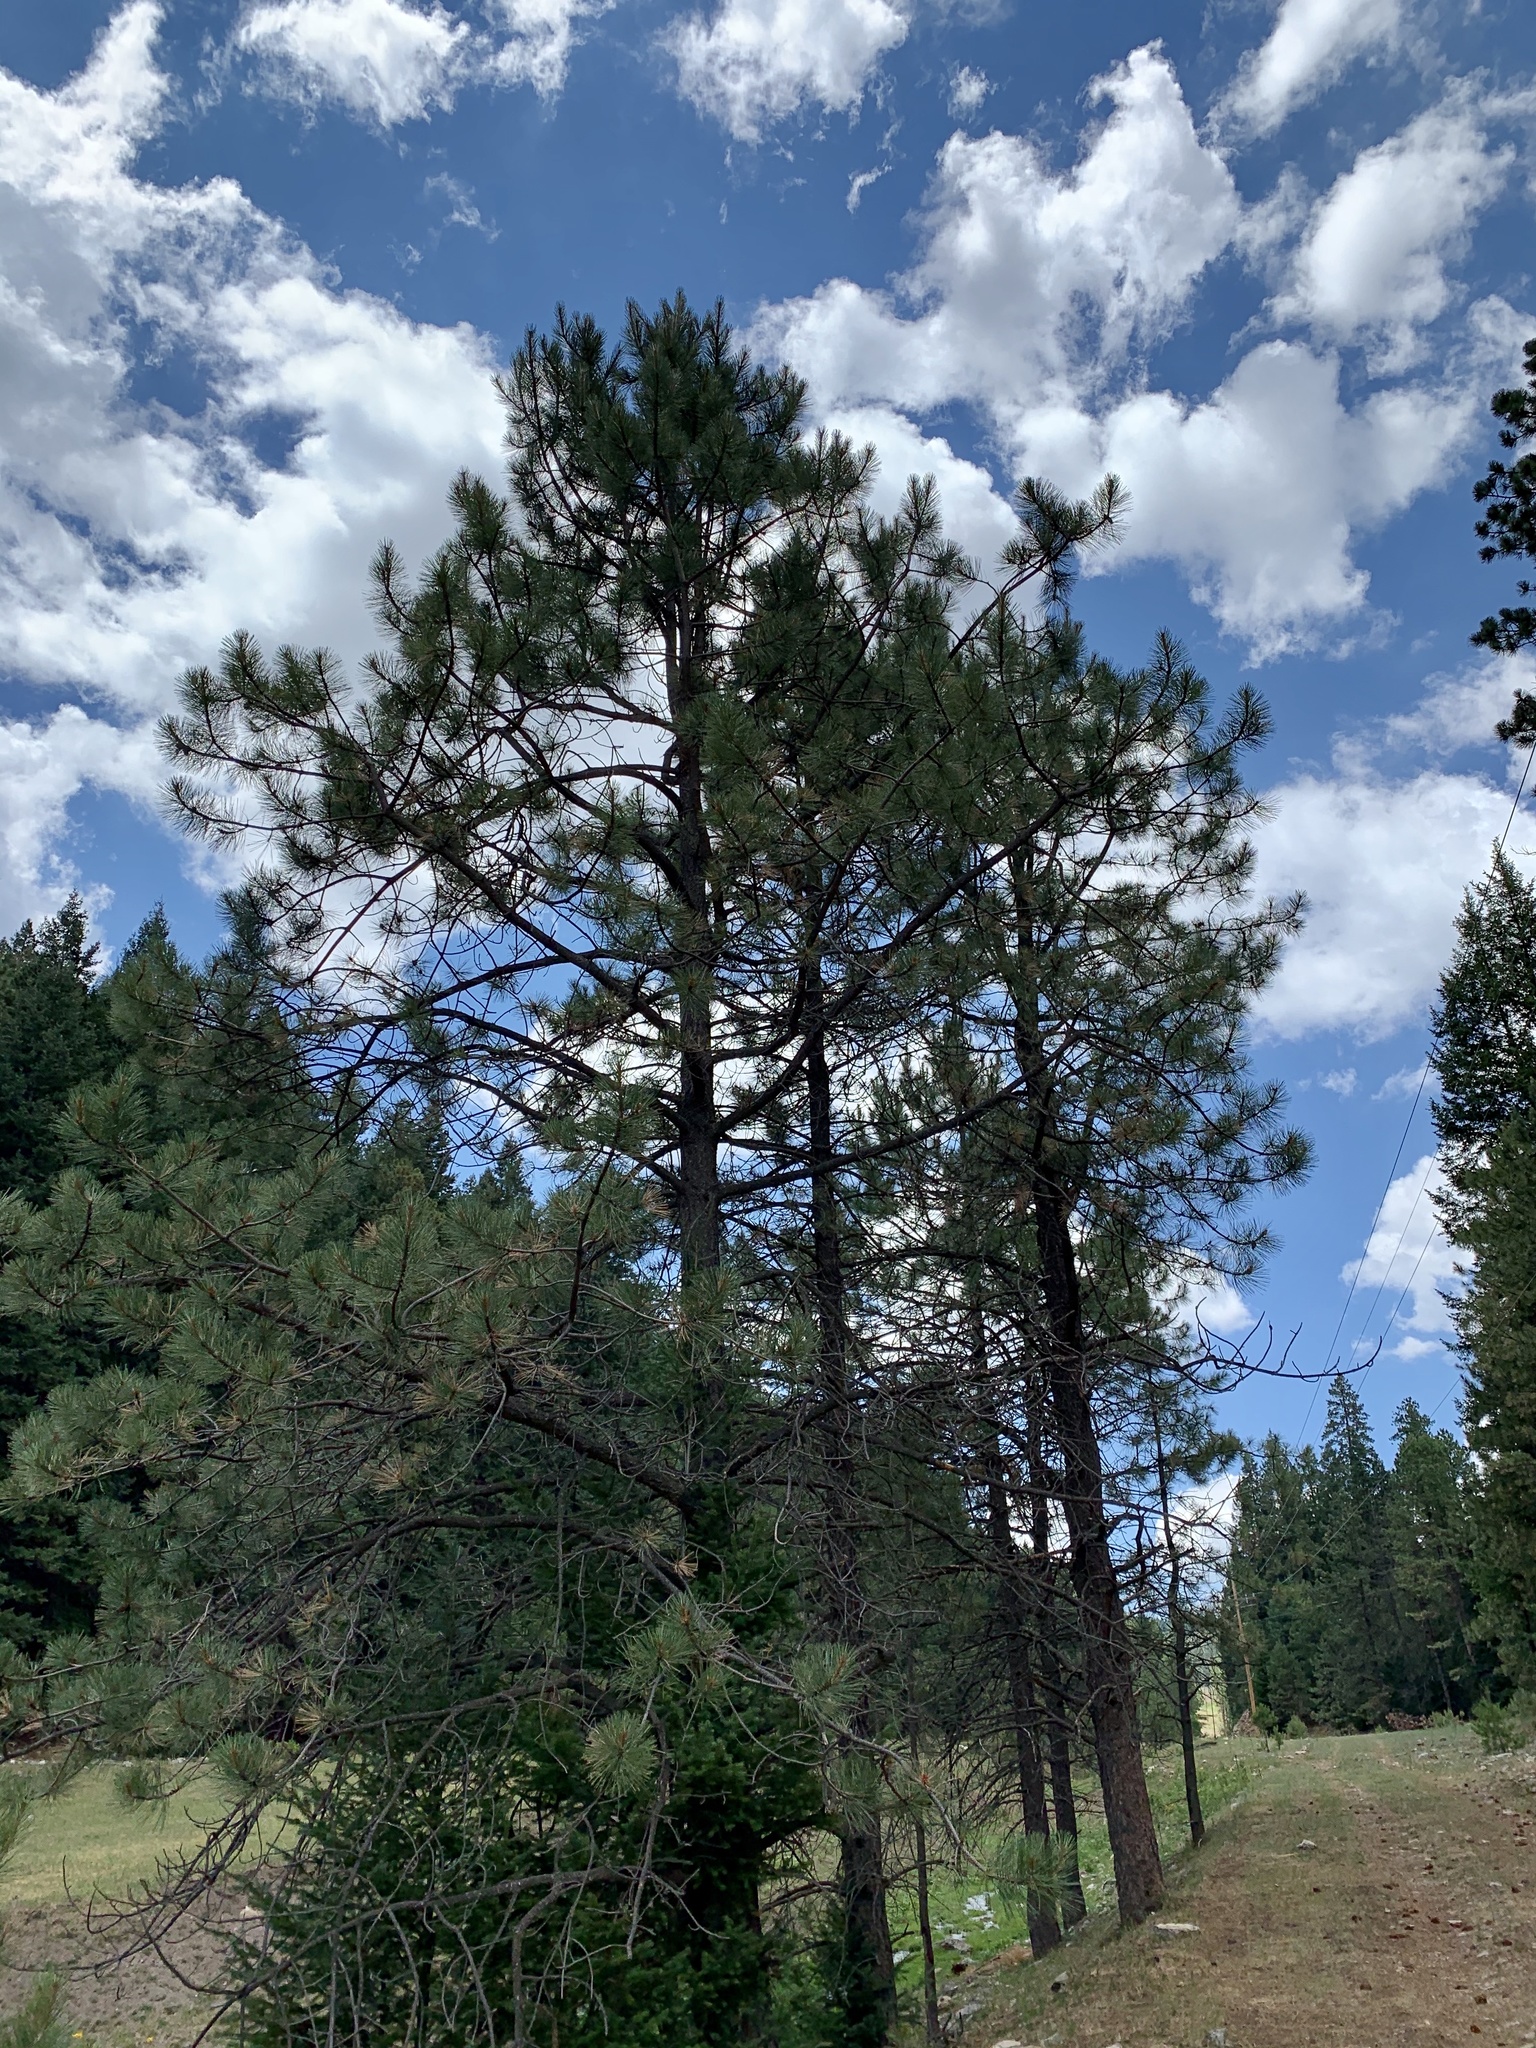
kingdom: Plantae
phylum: Tracheophyta
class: Pinopsida
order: Pinales
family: Pinaceae
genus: Pinus
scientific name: Pinus ponderosa
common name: Western yellow-pine
